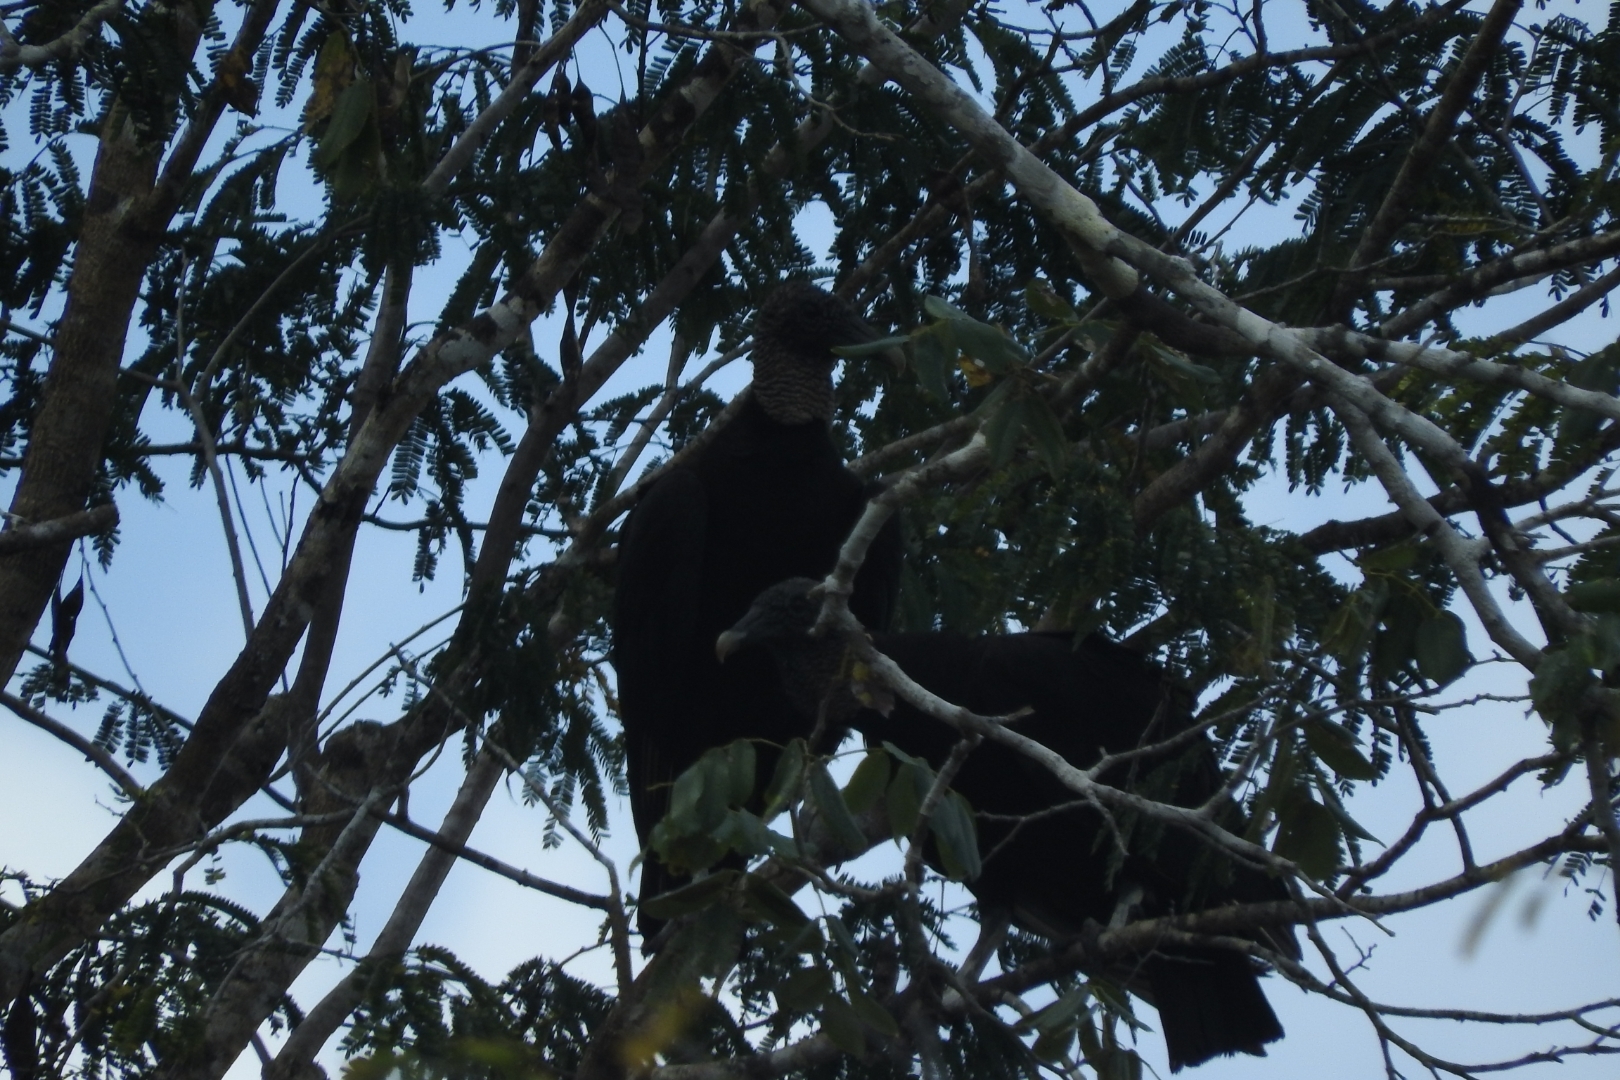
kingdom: Animalia
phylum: Chordata
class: Aves
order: Accipitriformes
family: Cathartidae
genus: Coragyps
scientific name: Coragyps atratus
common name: Black vulture
